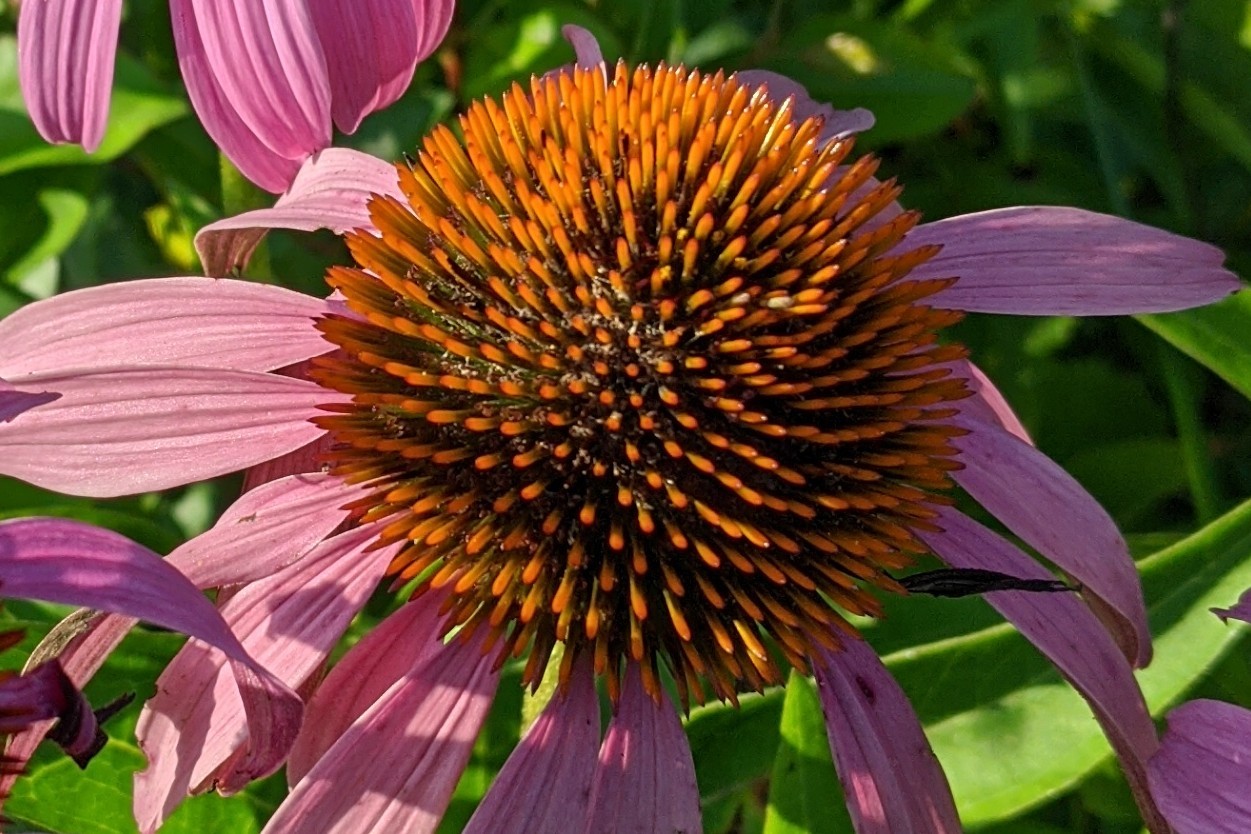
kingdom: Plantae
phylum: Tracheophyta
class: Magnoliopsida
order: Asterales
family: Asteraceae
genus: Echinacea
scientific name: Echinacea purpurea
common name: Broad-leaved purple coneflower
